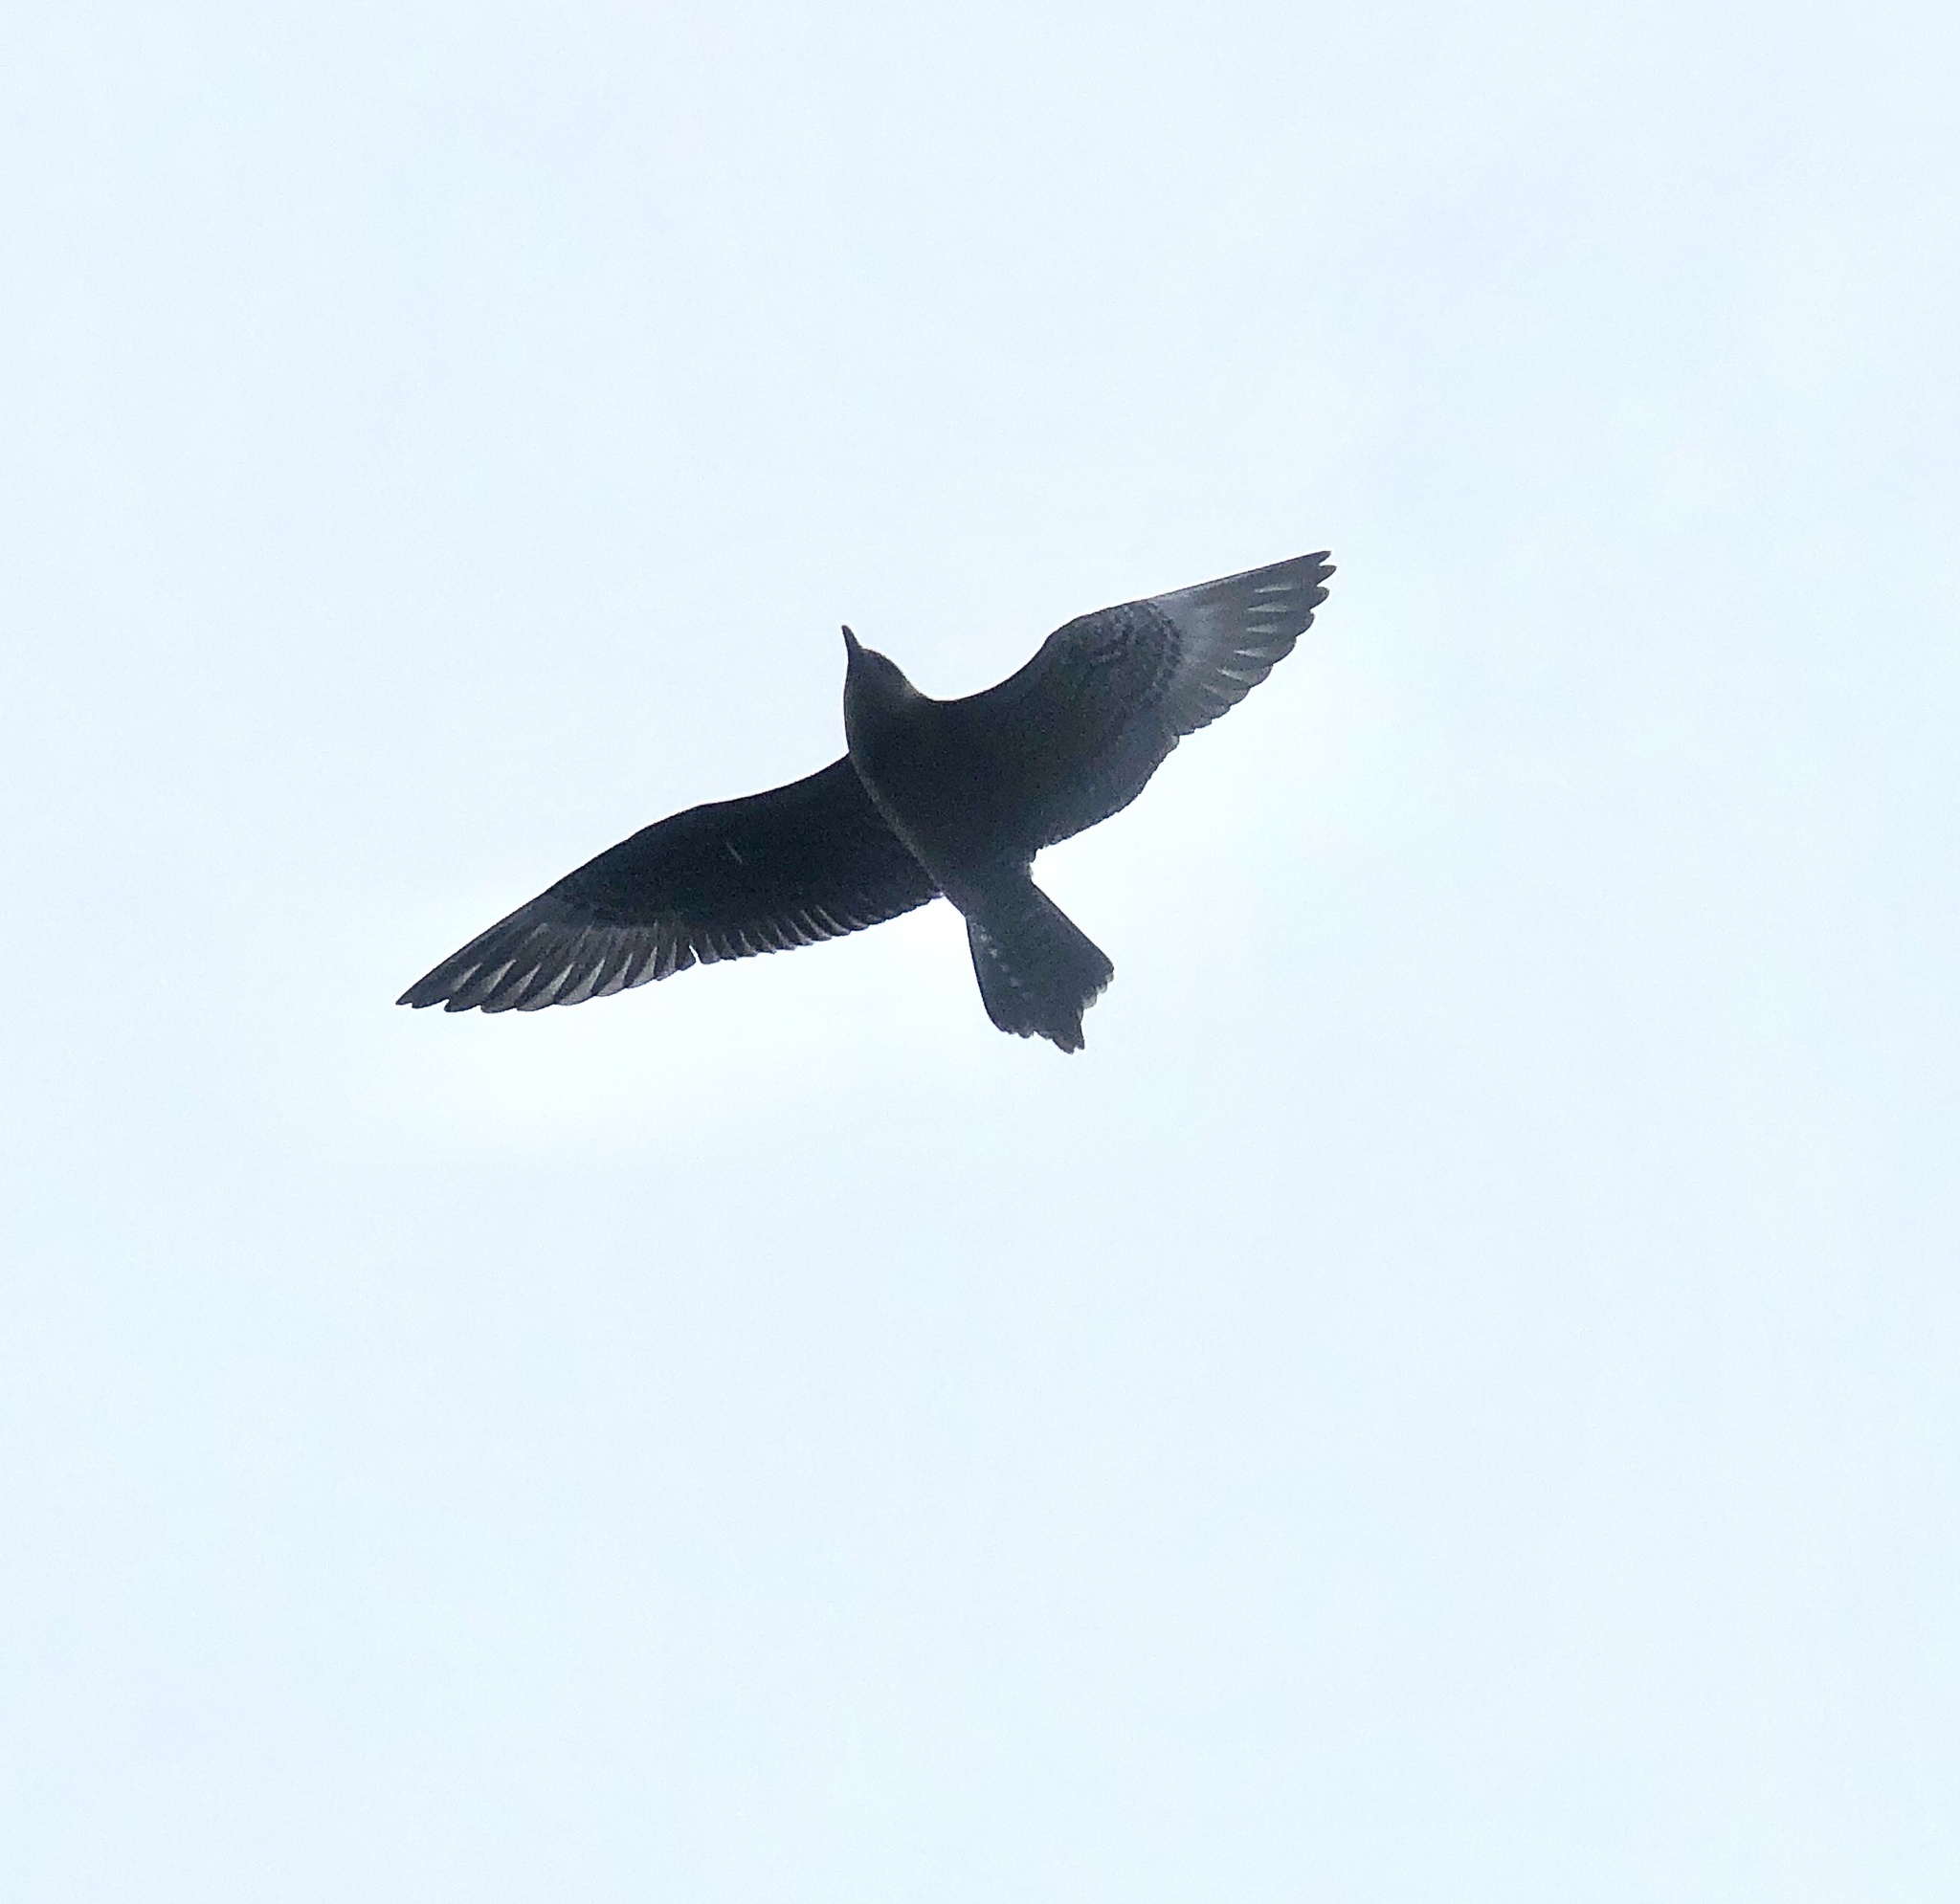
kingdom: Animalia
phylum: Chordata
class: Aves
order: Charadriiformes
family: Stercorariidae
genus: Stercorarius
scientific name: Stercorarius longicaudus
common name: Long-tailed jaeger
